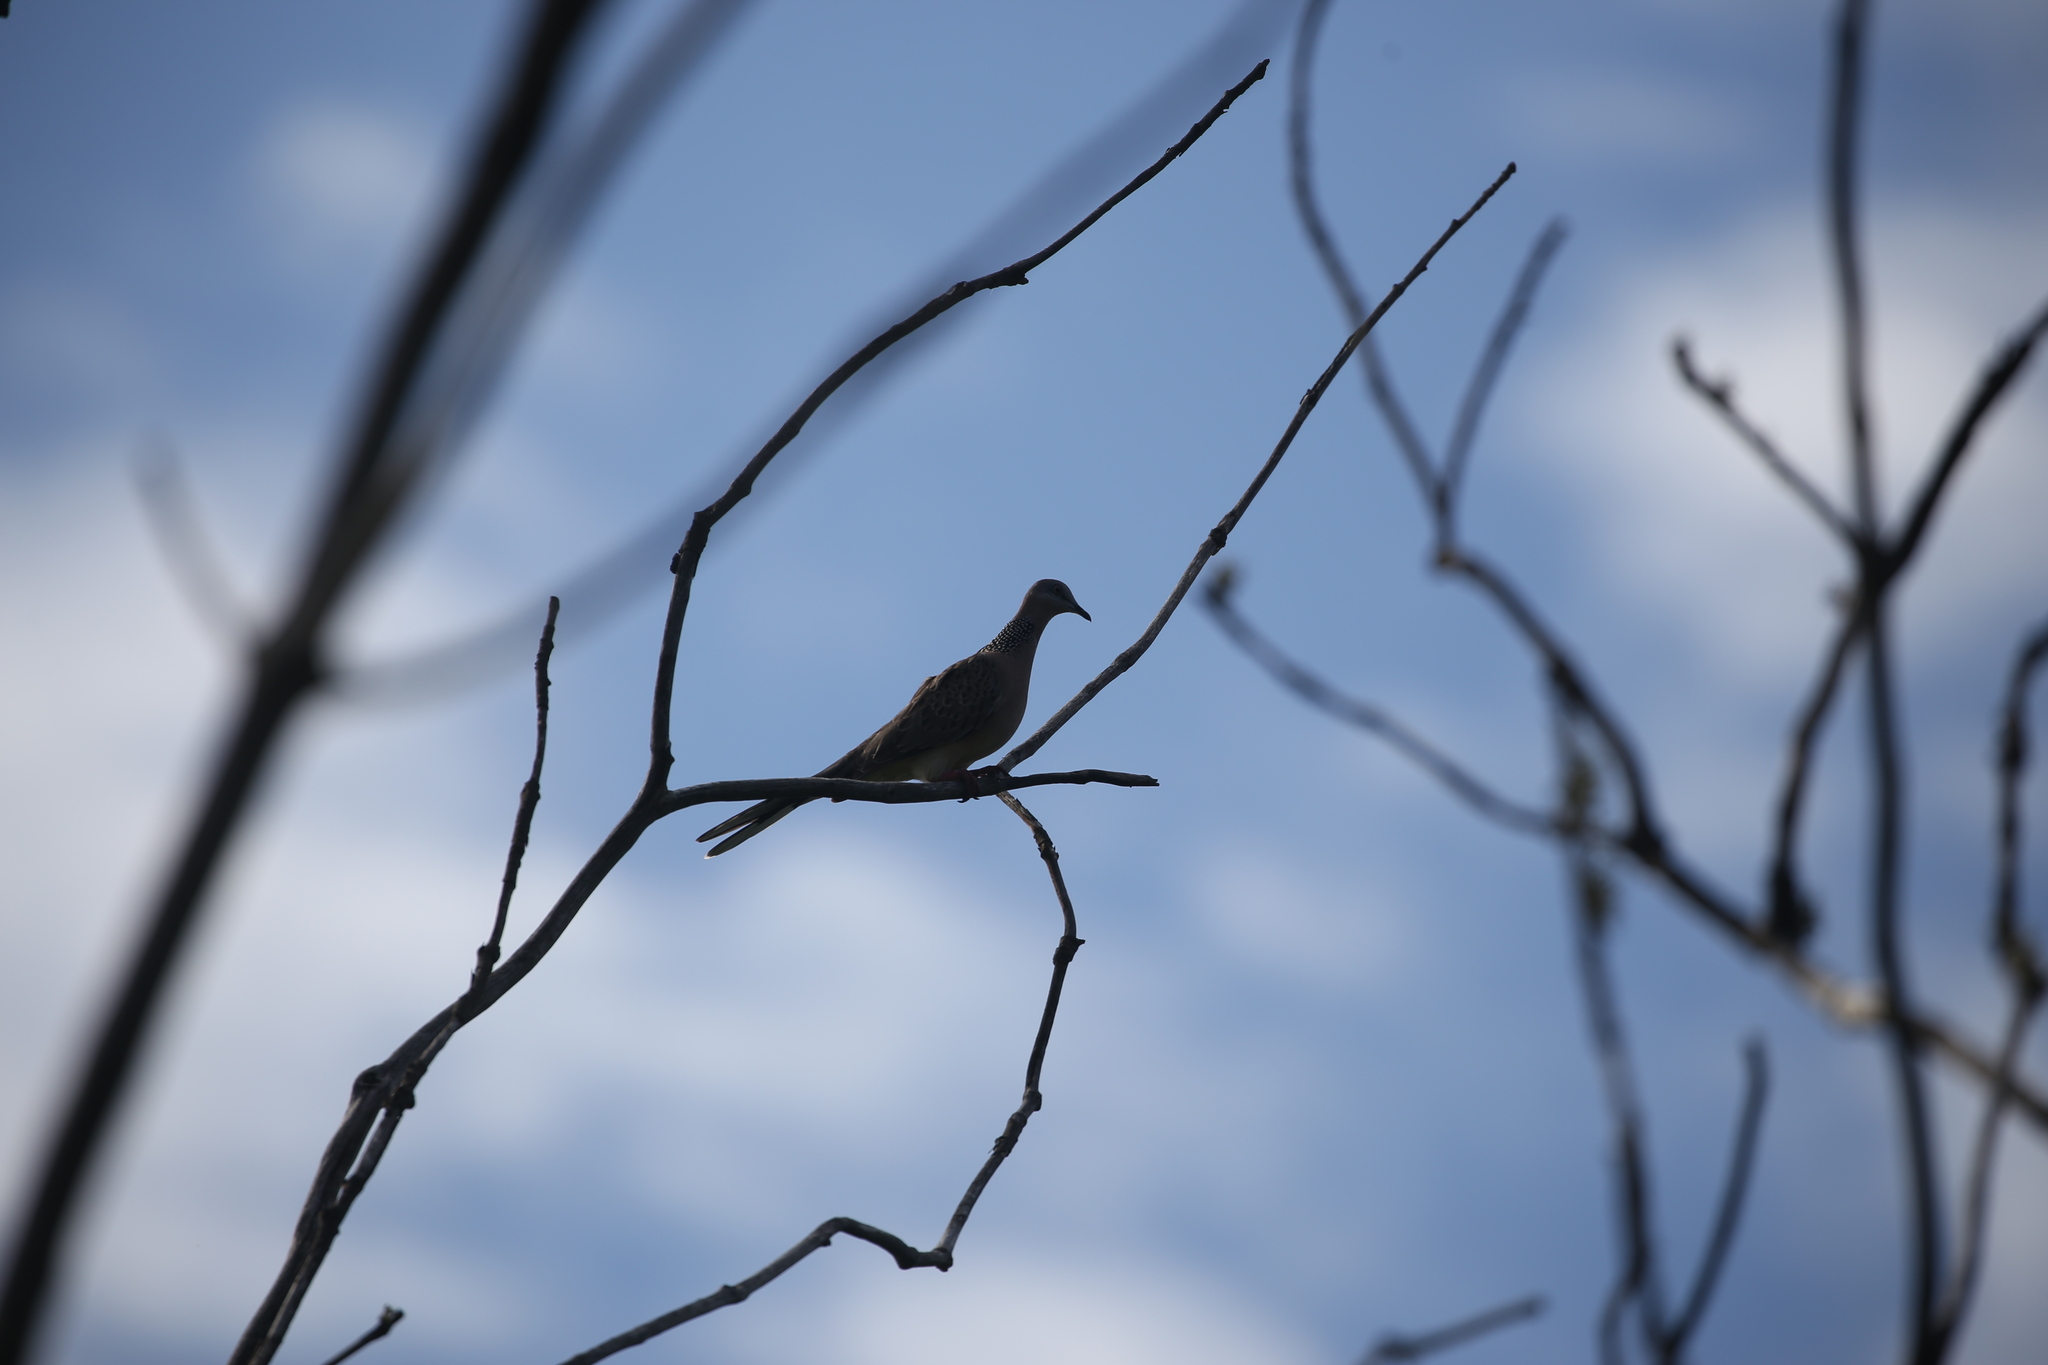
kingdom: Animalia
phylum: Chordata
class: Aves
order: Columbiformes
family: Columbidae
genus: Spilopelia
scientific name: Spilopelia chinensis
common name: Spotted dove
